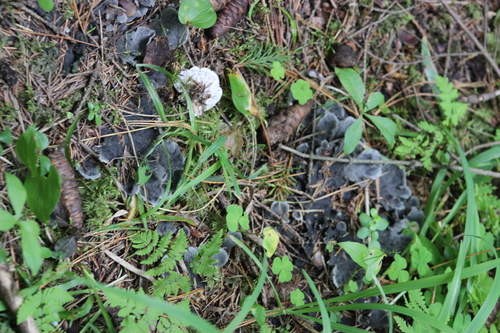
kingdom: Fungi
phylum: Ascomycota
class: Lecanoromycetes
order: Peltigerales
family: Peltigeraceae
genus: Peltigera
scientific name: Peltigera
